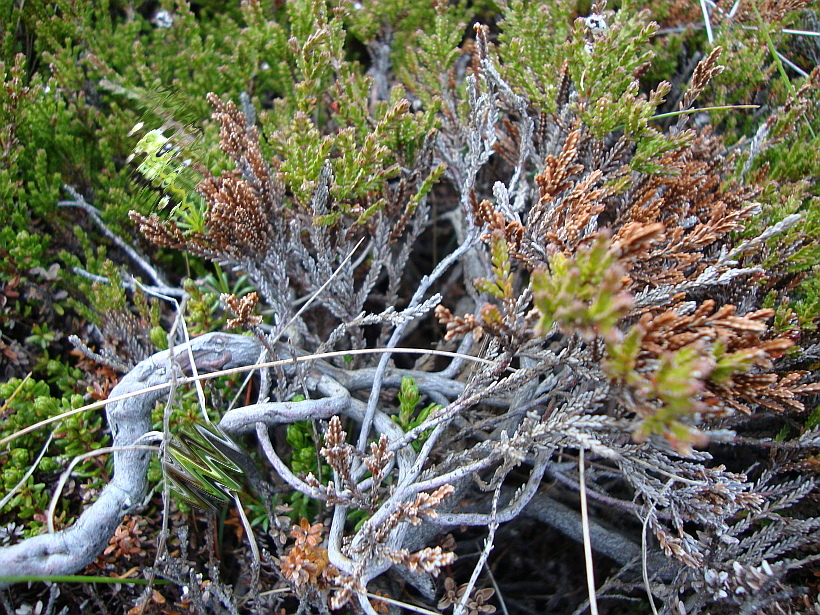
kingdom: Plantae
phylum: Tracheophyta
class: Magnoliopsida
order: Ericales
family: Ericaceae
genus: Calluna
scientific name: Calluna vulgaris
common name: Heather
